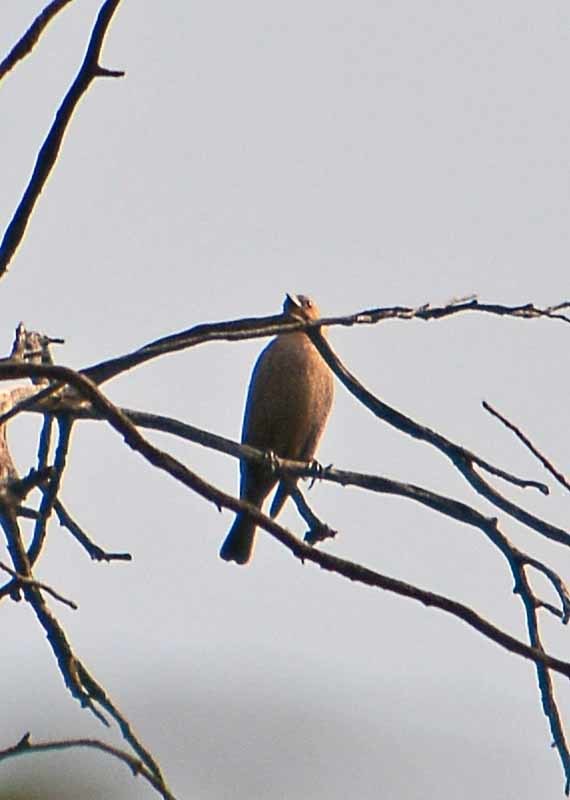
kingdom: Animalia
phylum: Chordata
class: Aves
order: Passeriformes
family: Icteridae
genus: Molothrus
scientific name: Molothrus ater
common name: Brown-headed cowbird
